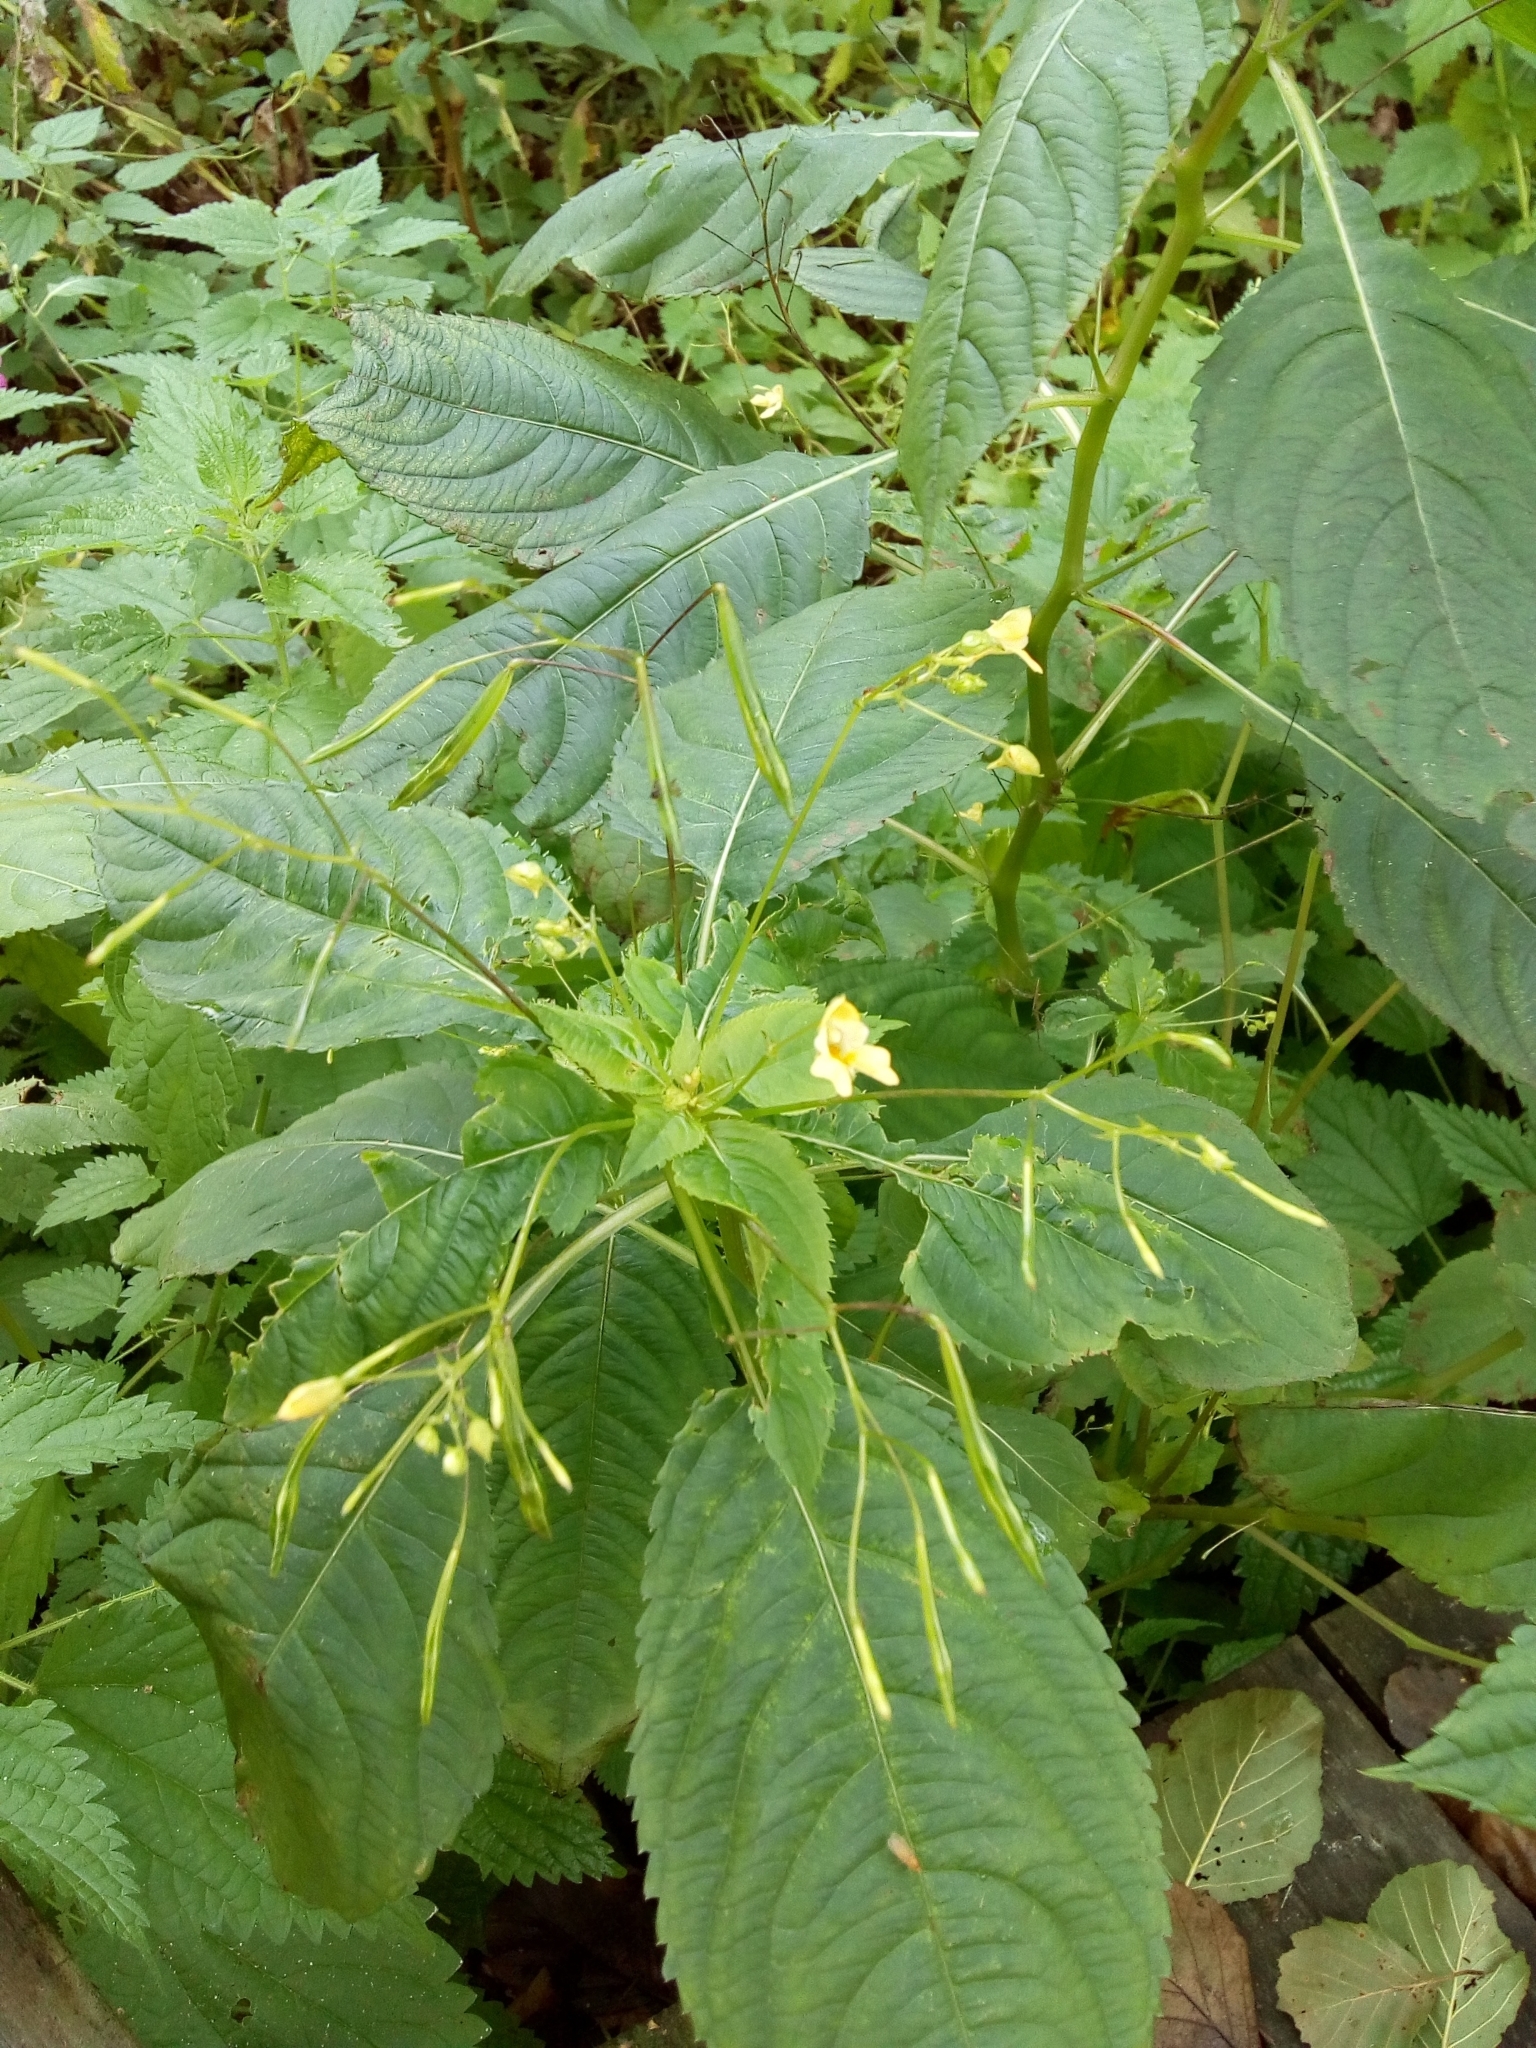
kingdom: Plantae
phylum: Tracheophyta
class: Magnoliopsida
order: Ericales
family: Balsaminaceae
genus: Impatiens
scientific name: Impatiens parviflora
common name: Small balsam
